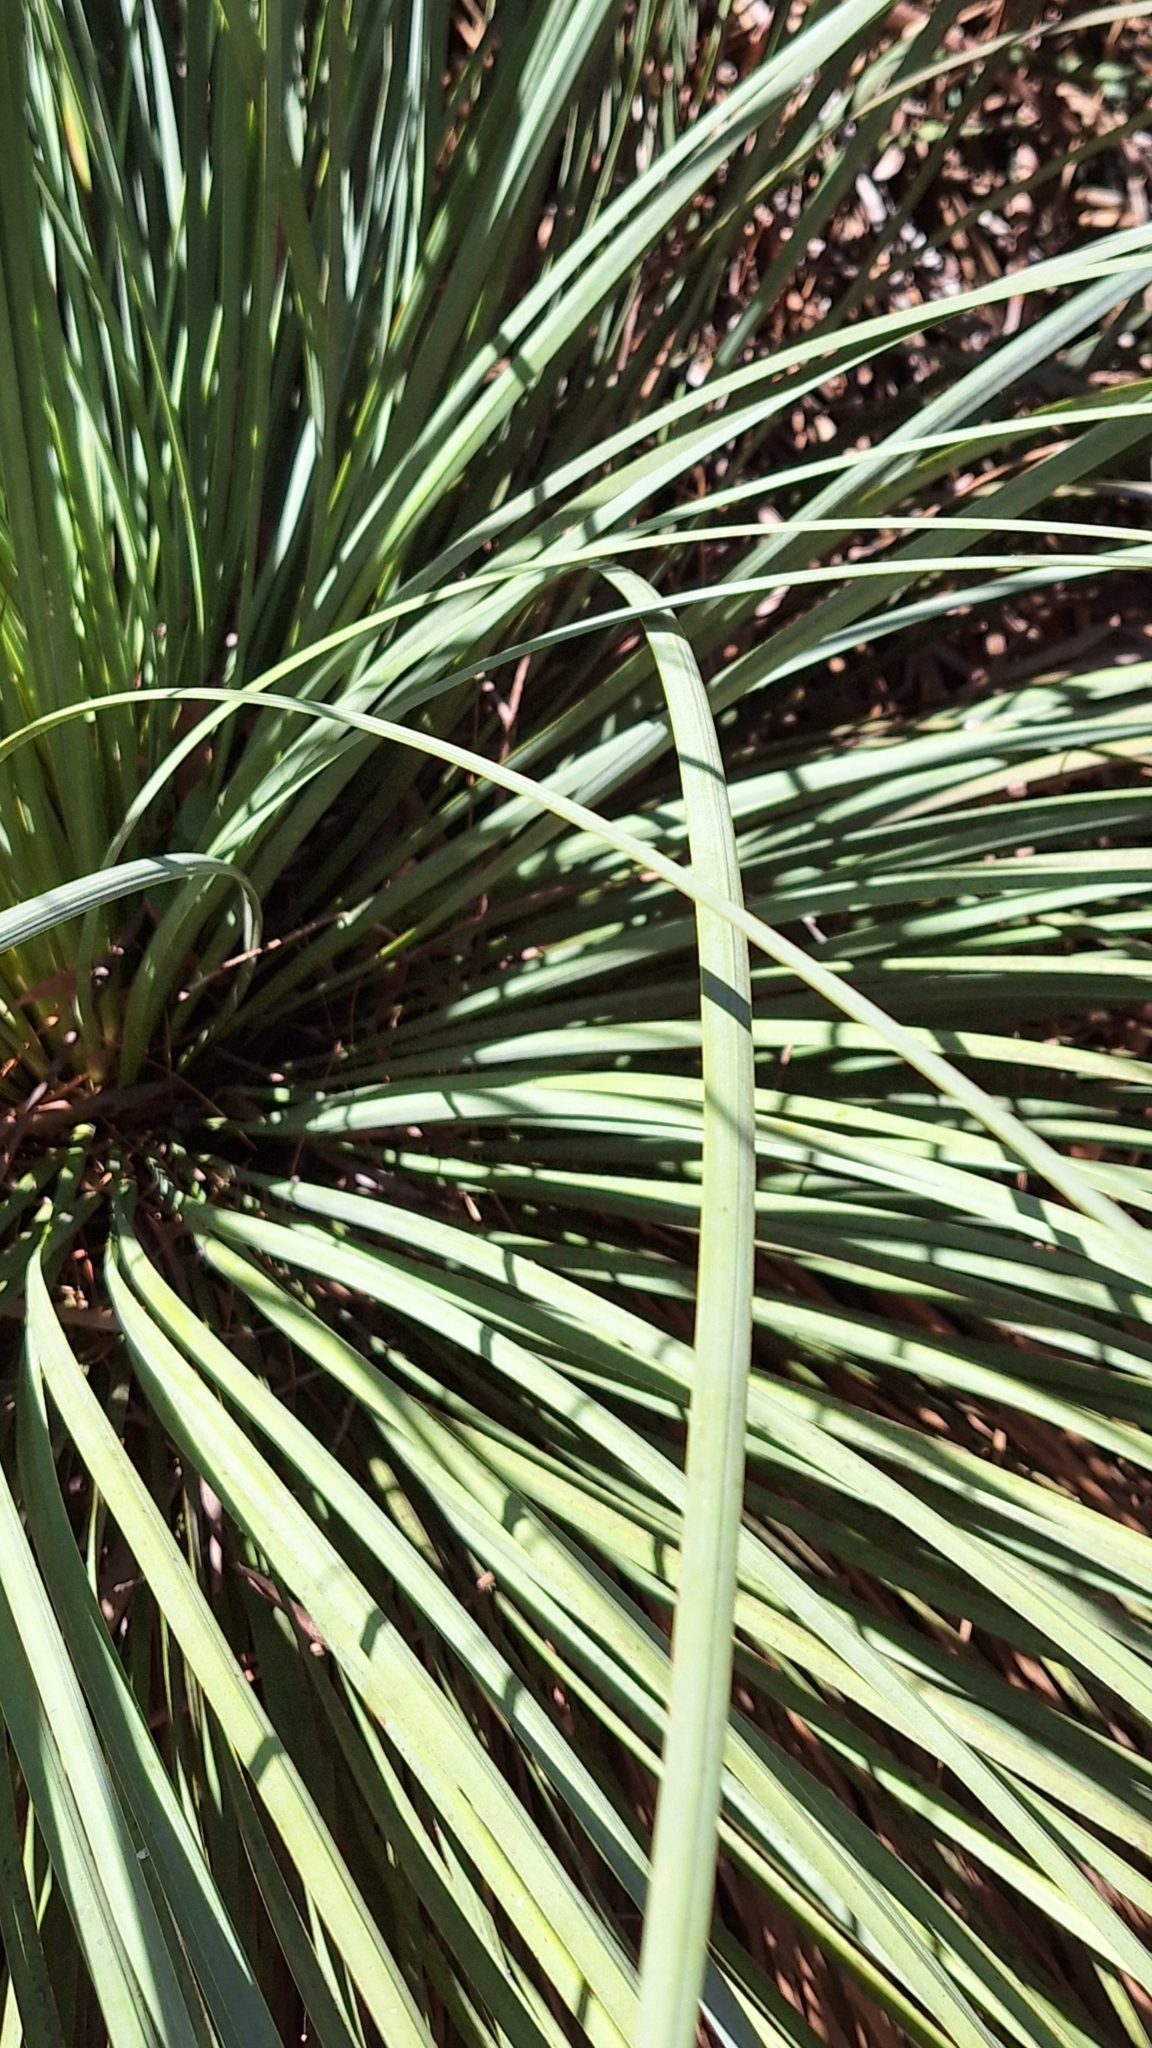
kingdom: Plantae
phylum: Tracheophyta
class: Liliopsida
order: Asparagales
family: Asphodelaceae
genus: Xanthorrhoea
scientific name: Xanthorrhoea semiplana
